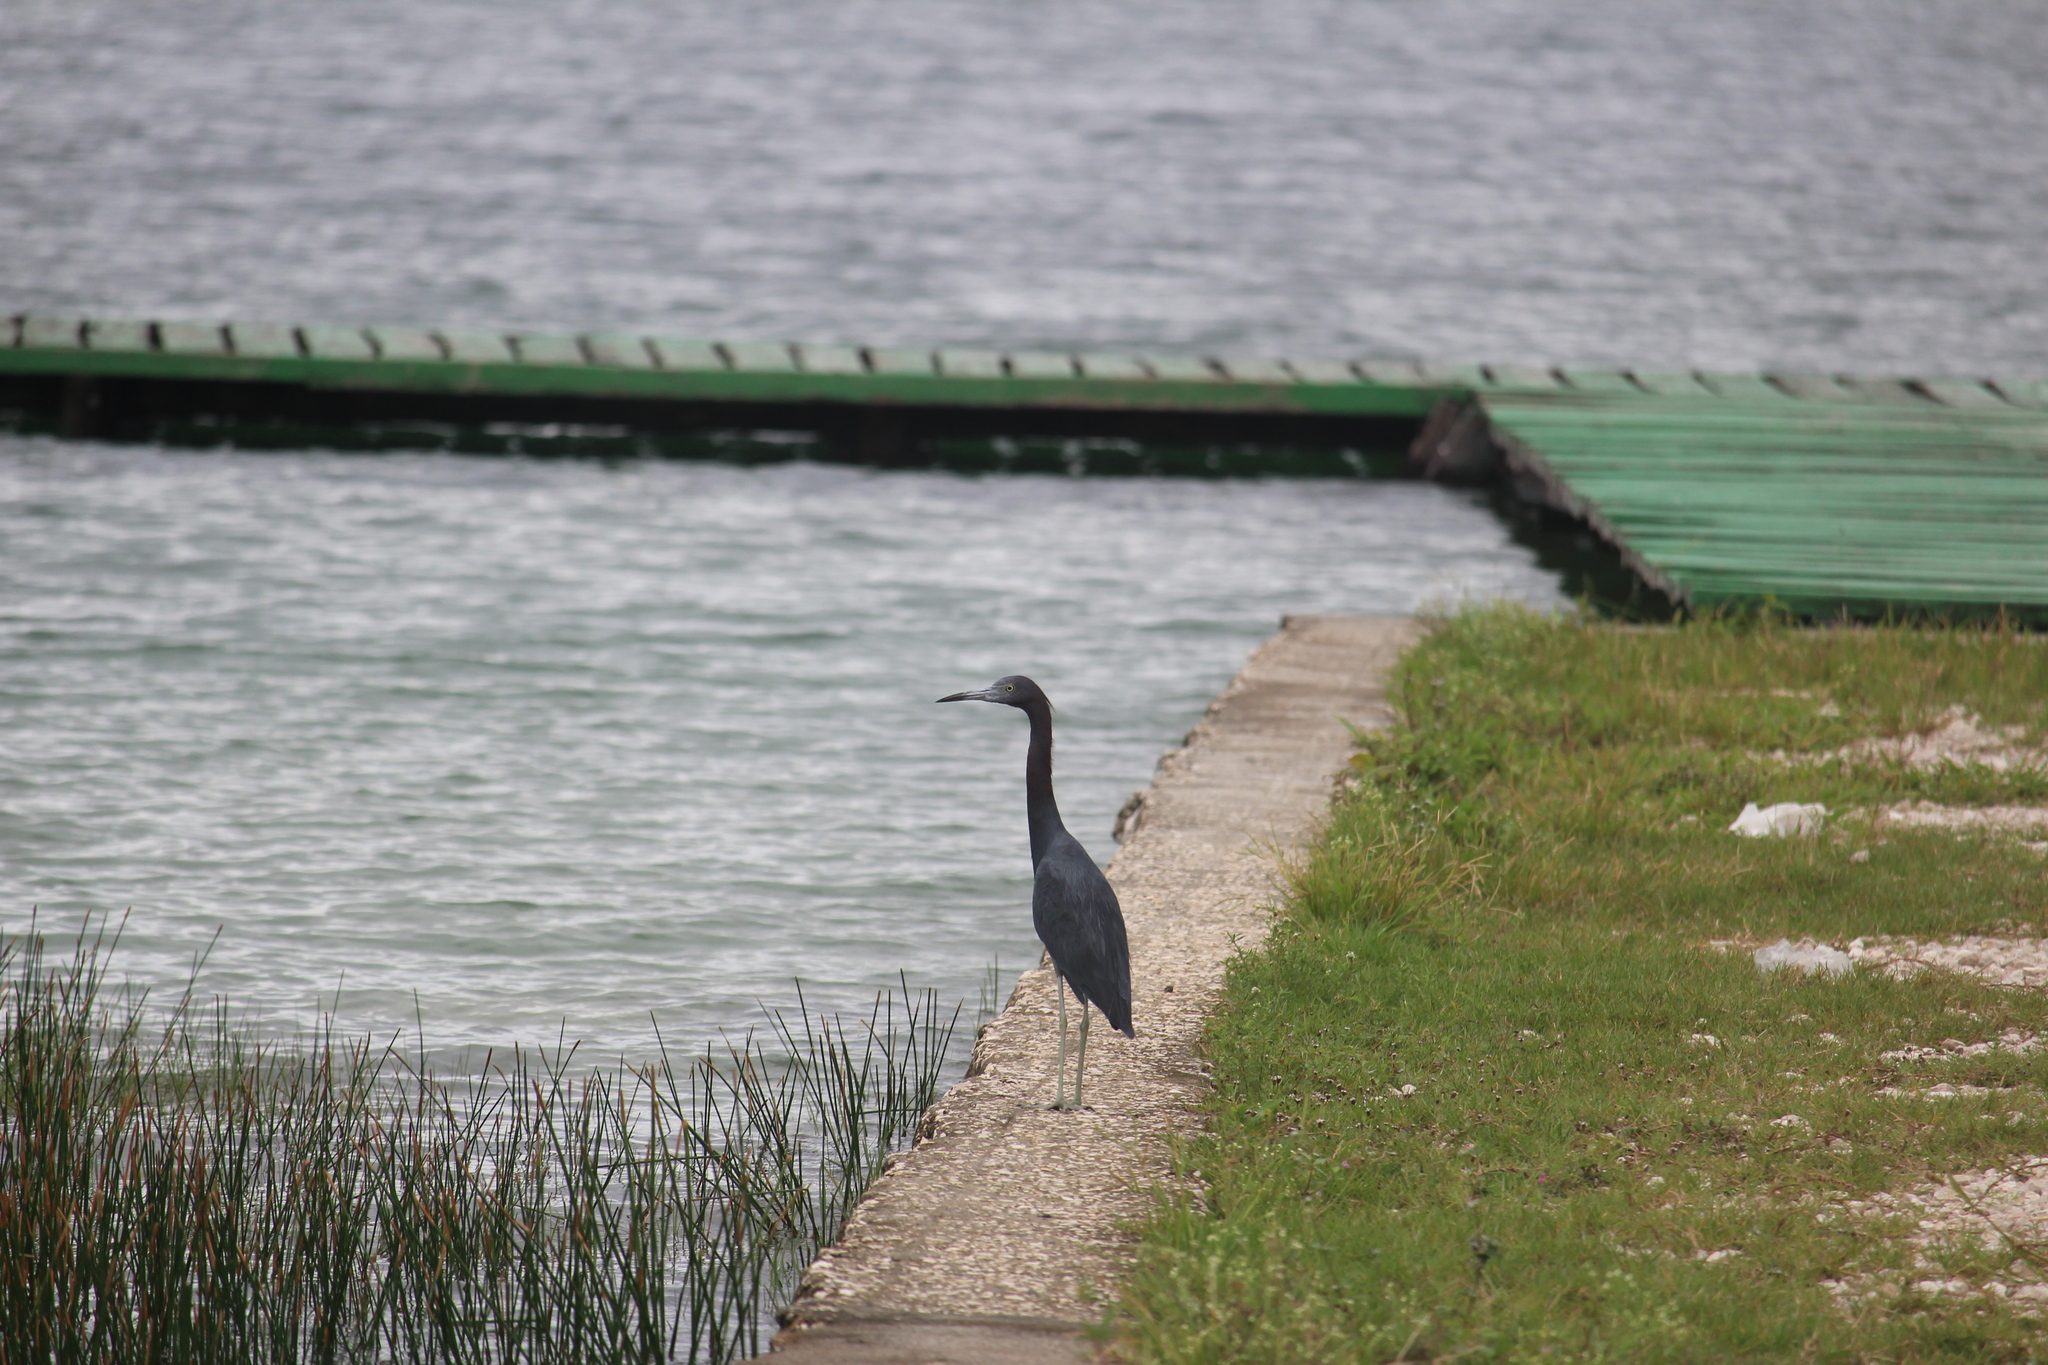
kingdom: Animalia
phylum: Chordata
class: Aves
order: Pelecaniformes
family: Ardeidae
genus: Egretta
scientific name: Egretta caerulea
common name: Little blue heron
